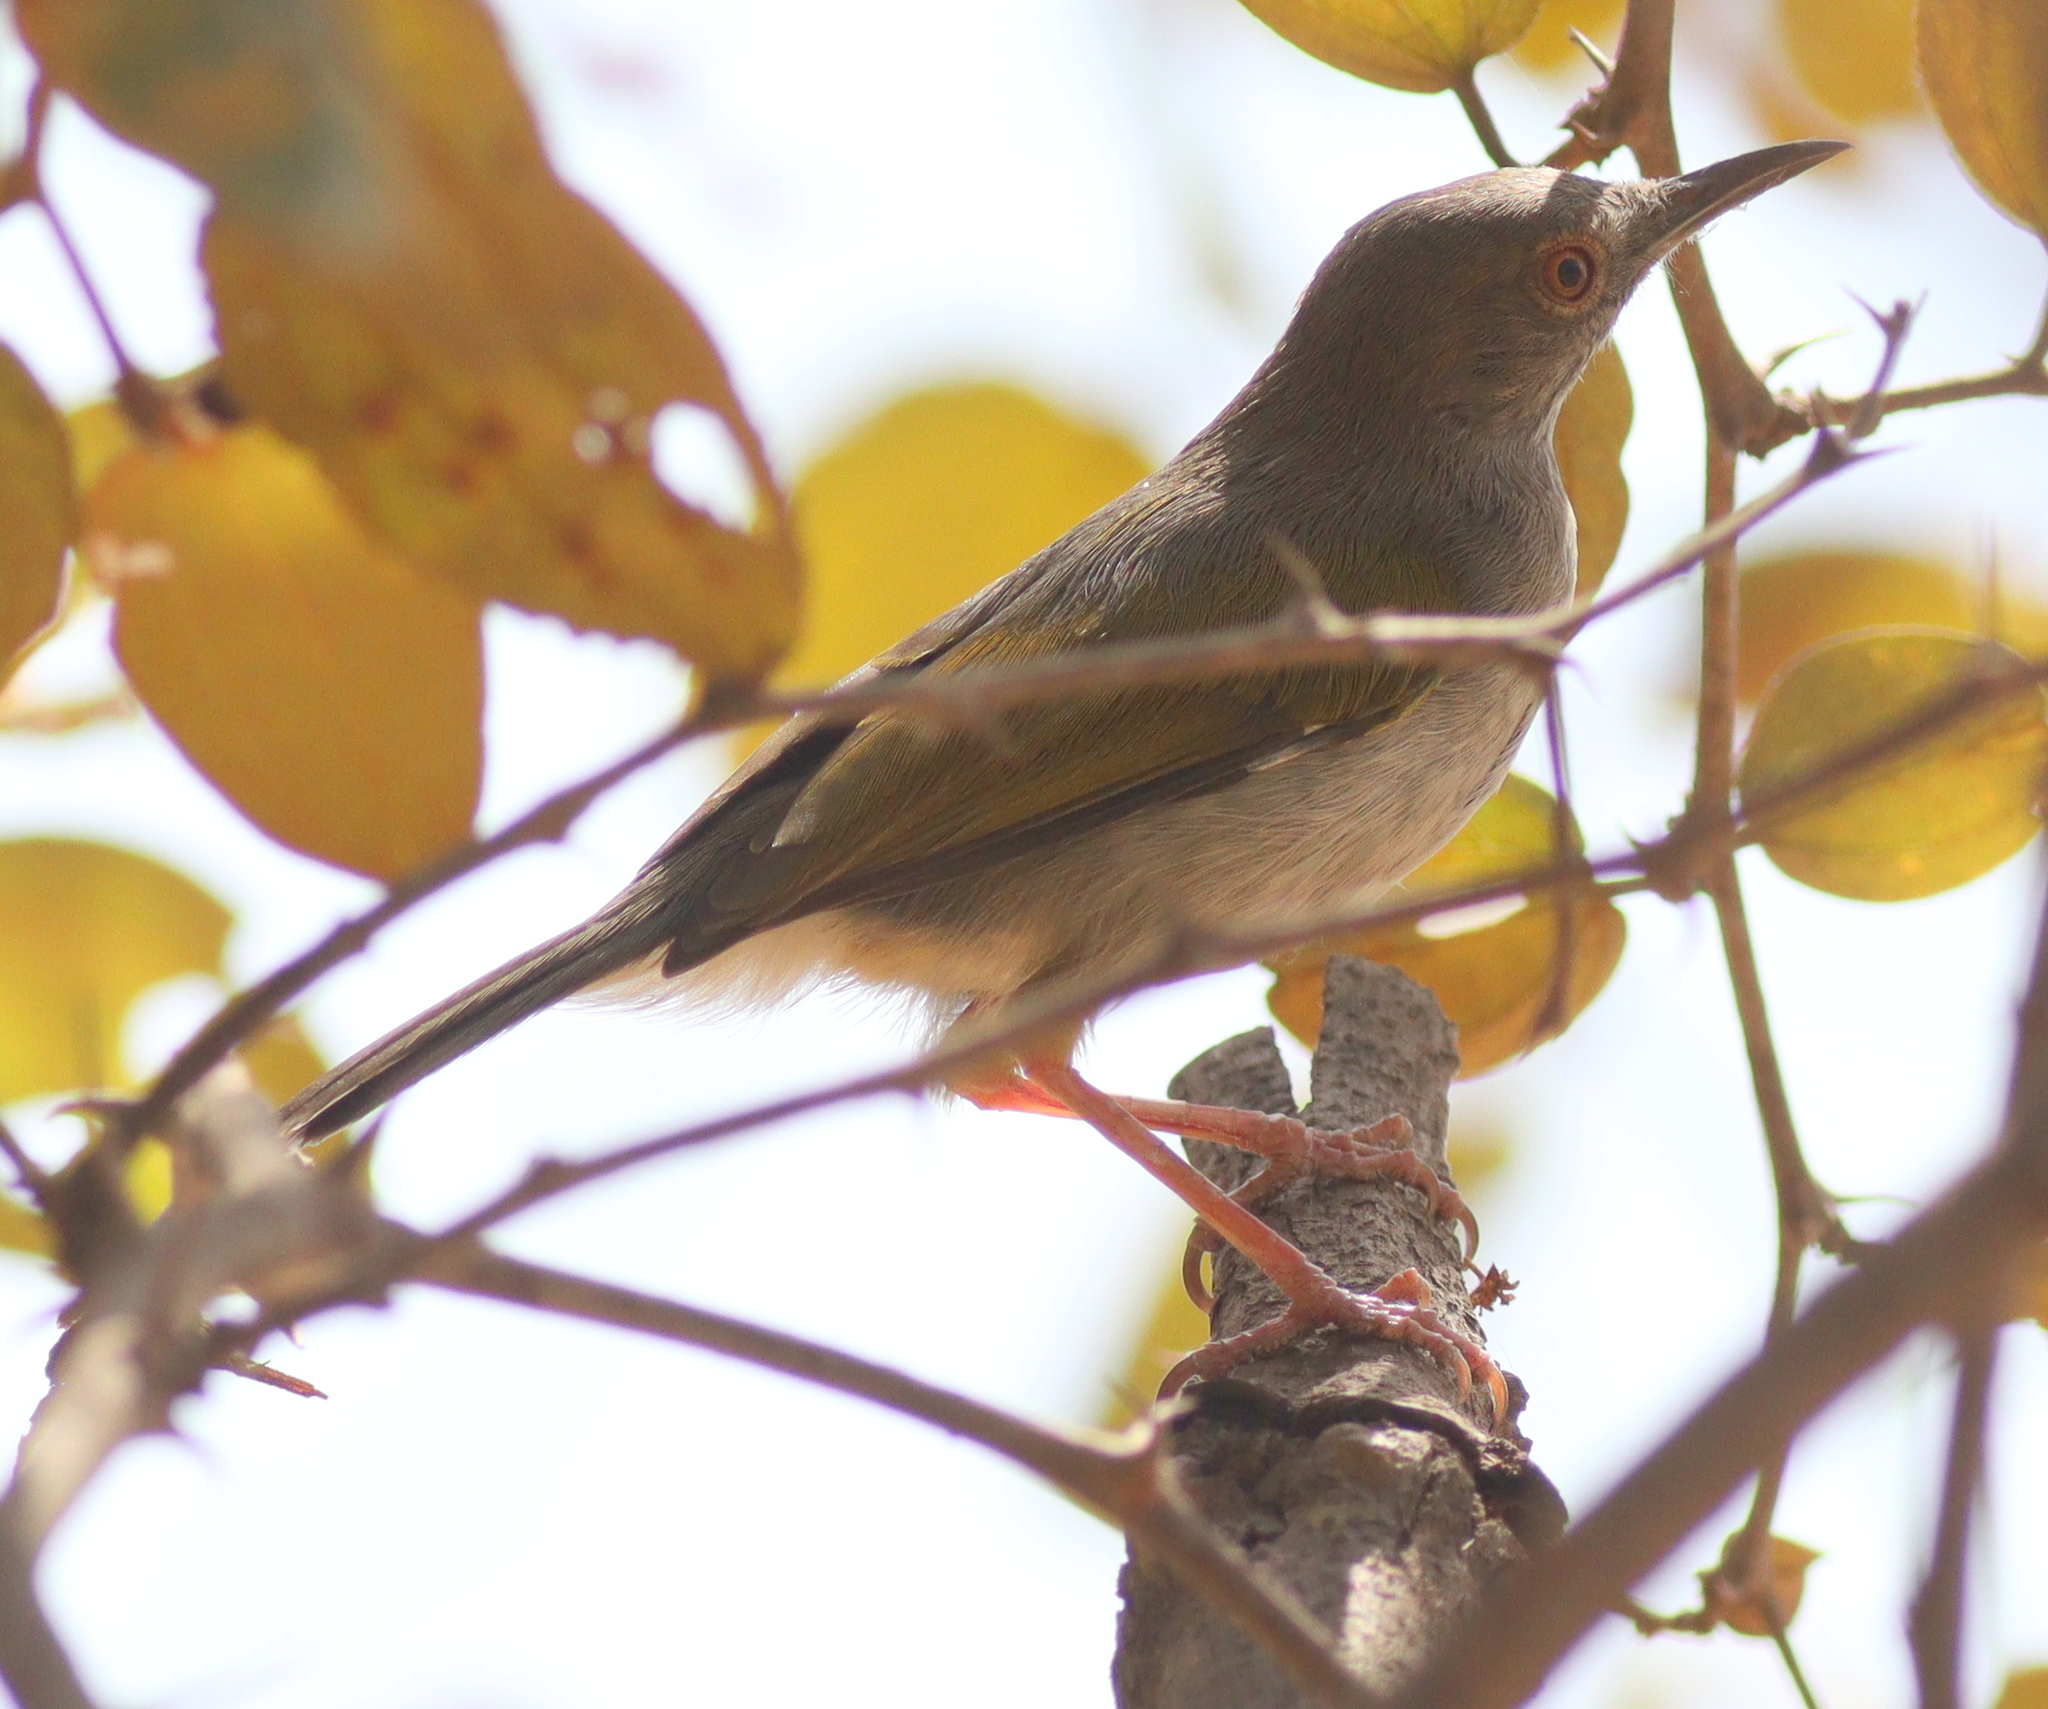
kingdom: Animalia
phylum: Chordata
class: Aves
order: Passeriformes
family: Cisticolidae
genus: Camaroptera
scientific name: Camaroptera brachyura
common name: Green-backed camaroptera
